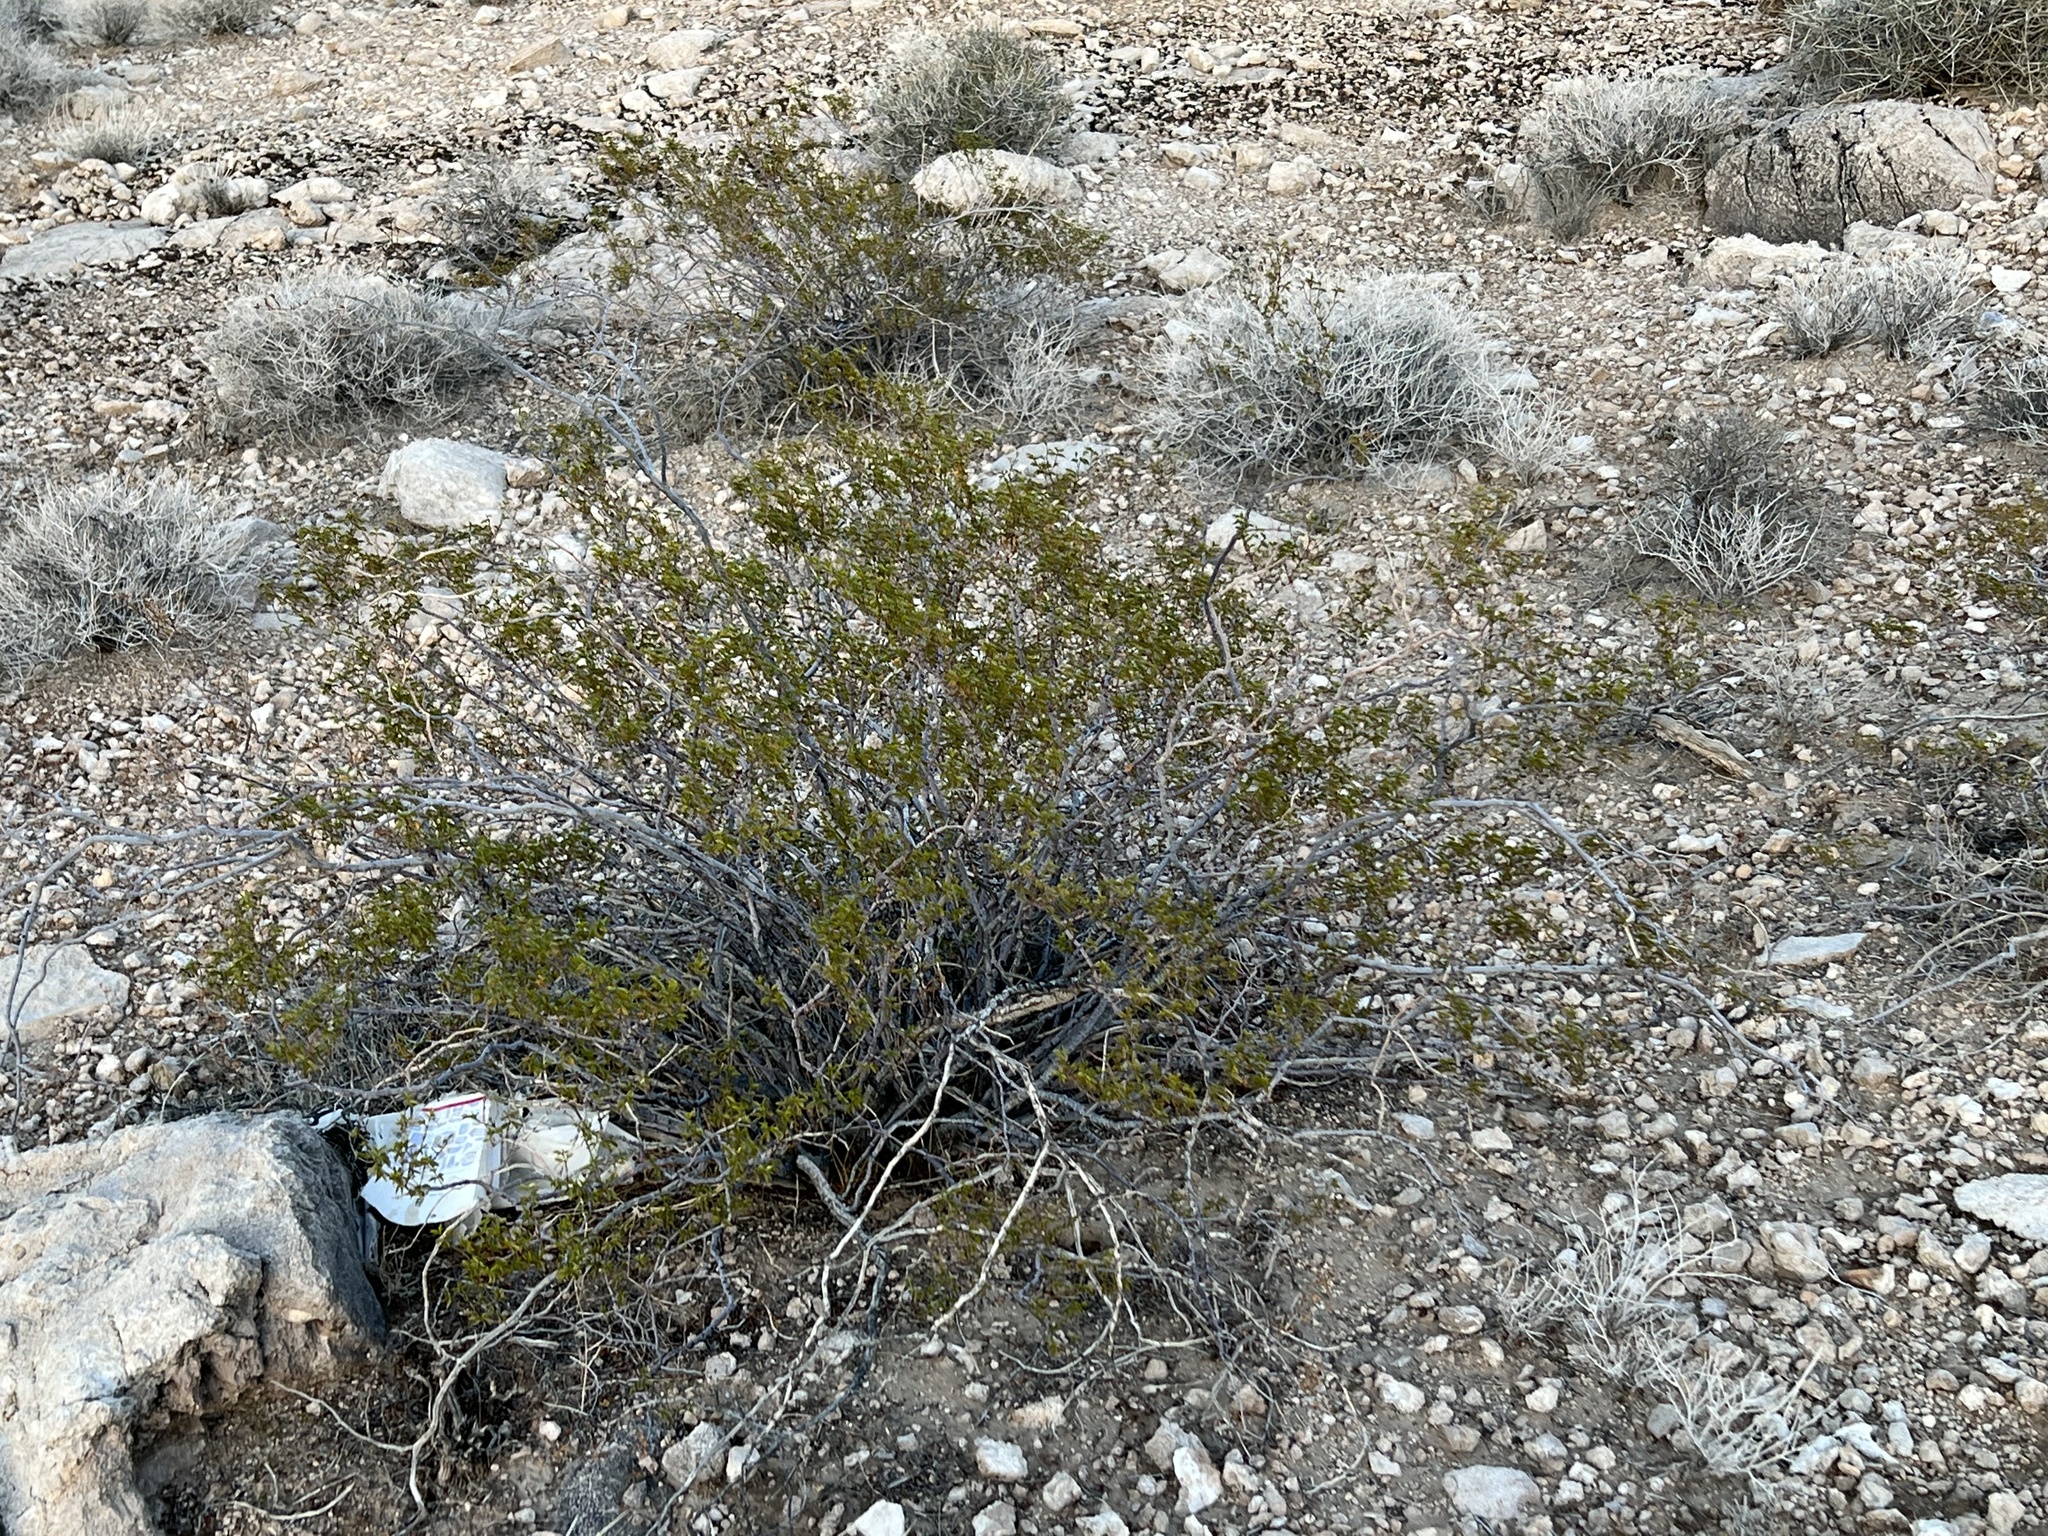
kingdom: Plantae
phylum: Tracheophyta
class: Magnoliopsida
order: Zygophyllales
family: Zygophyllaceae
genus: Larrea
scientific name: Larrea tridentata
